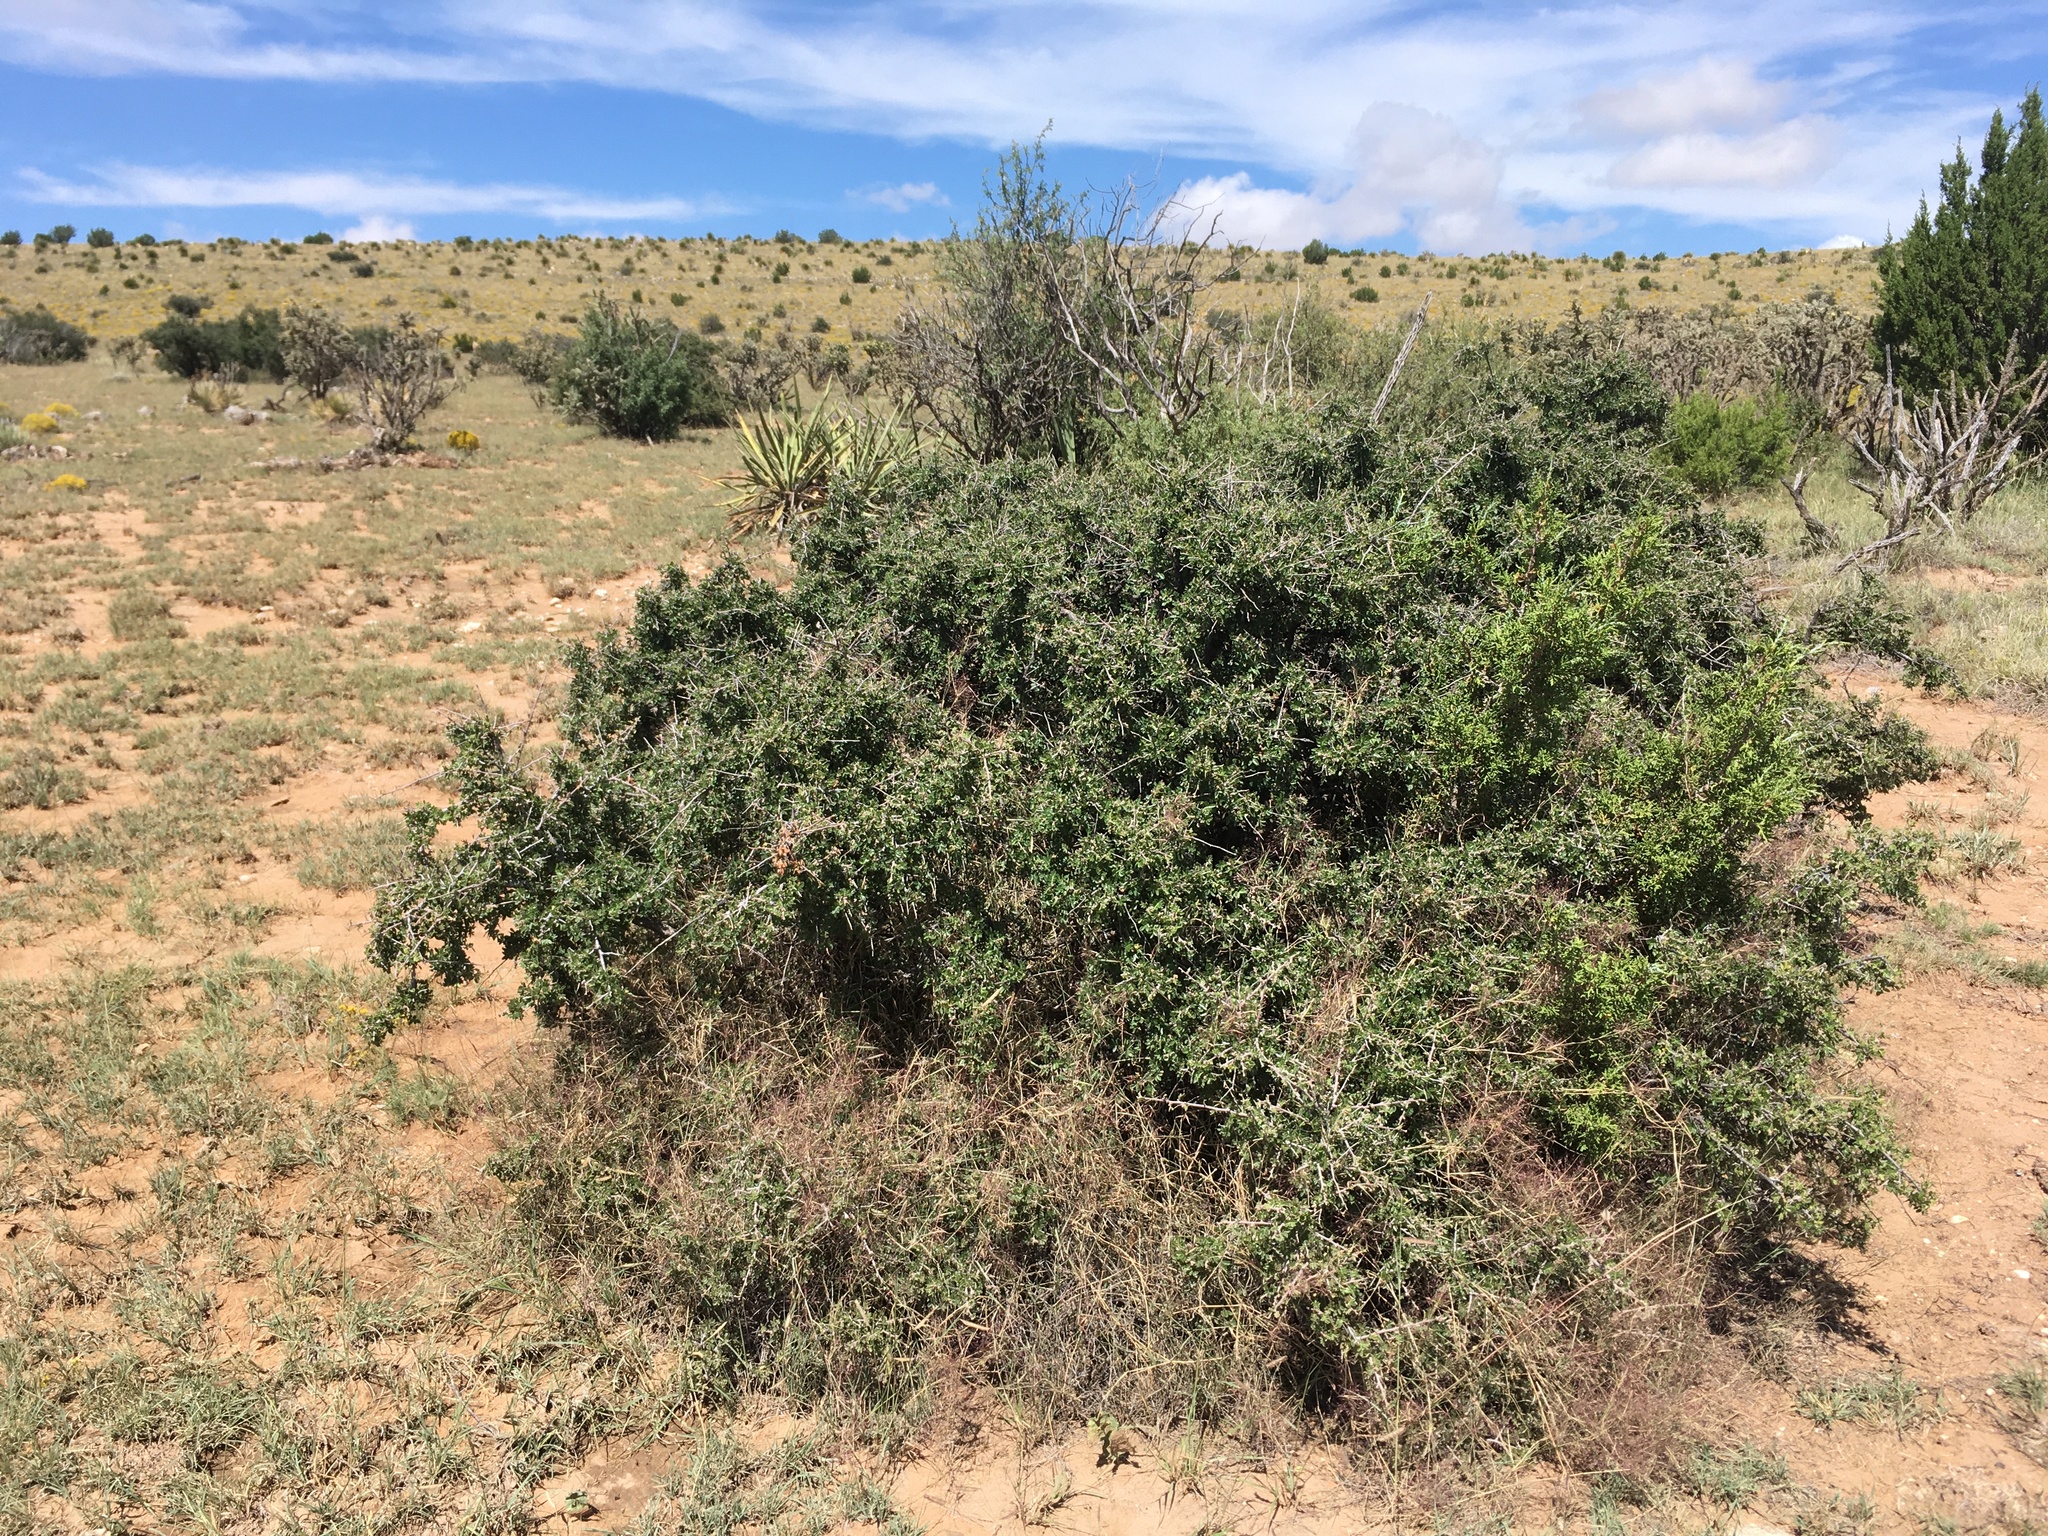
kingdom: Plantae
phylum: Tracheophyta
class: Magnoliopsida
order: Sapindales
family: Anacardiaceae
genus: Rhus
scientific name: Rhus microphylla
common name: Desert sumac
